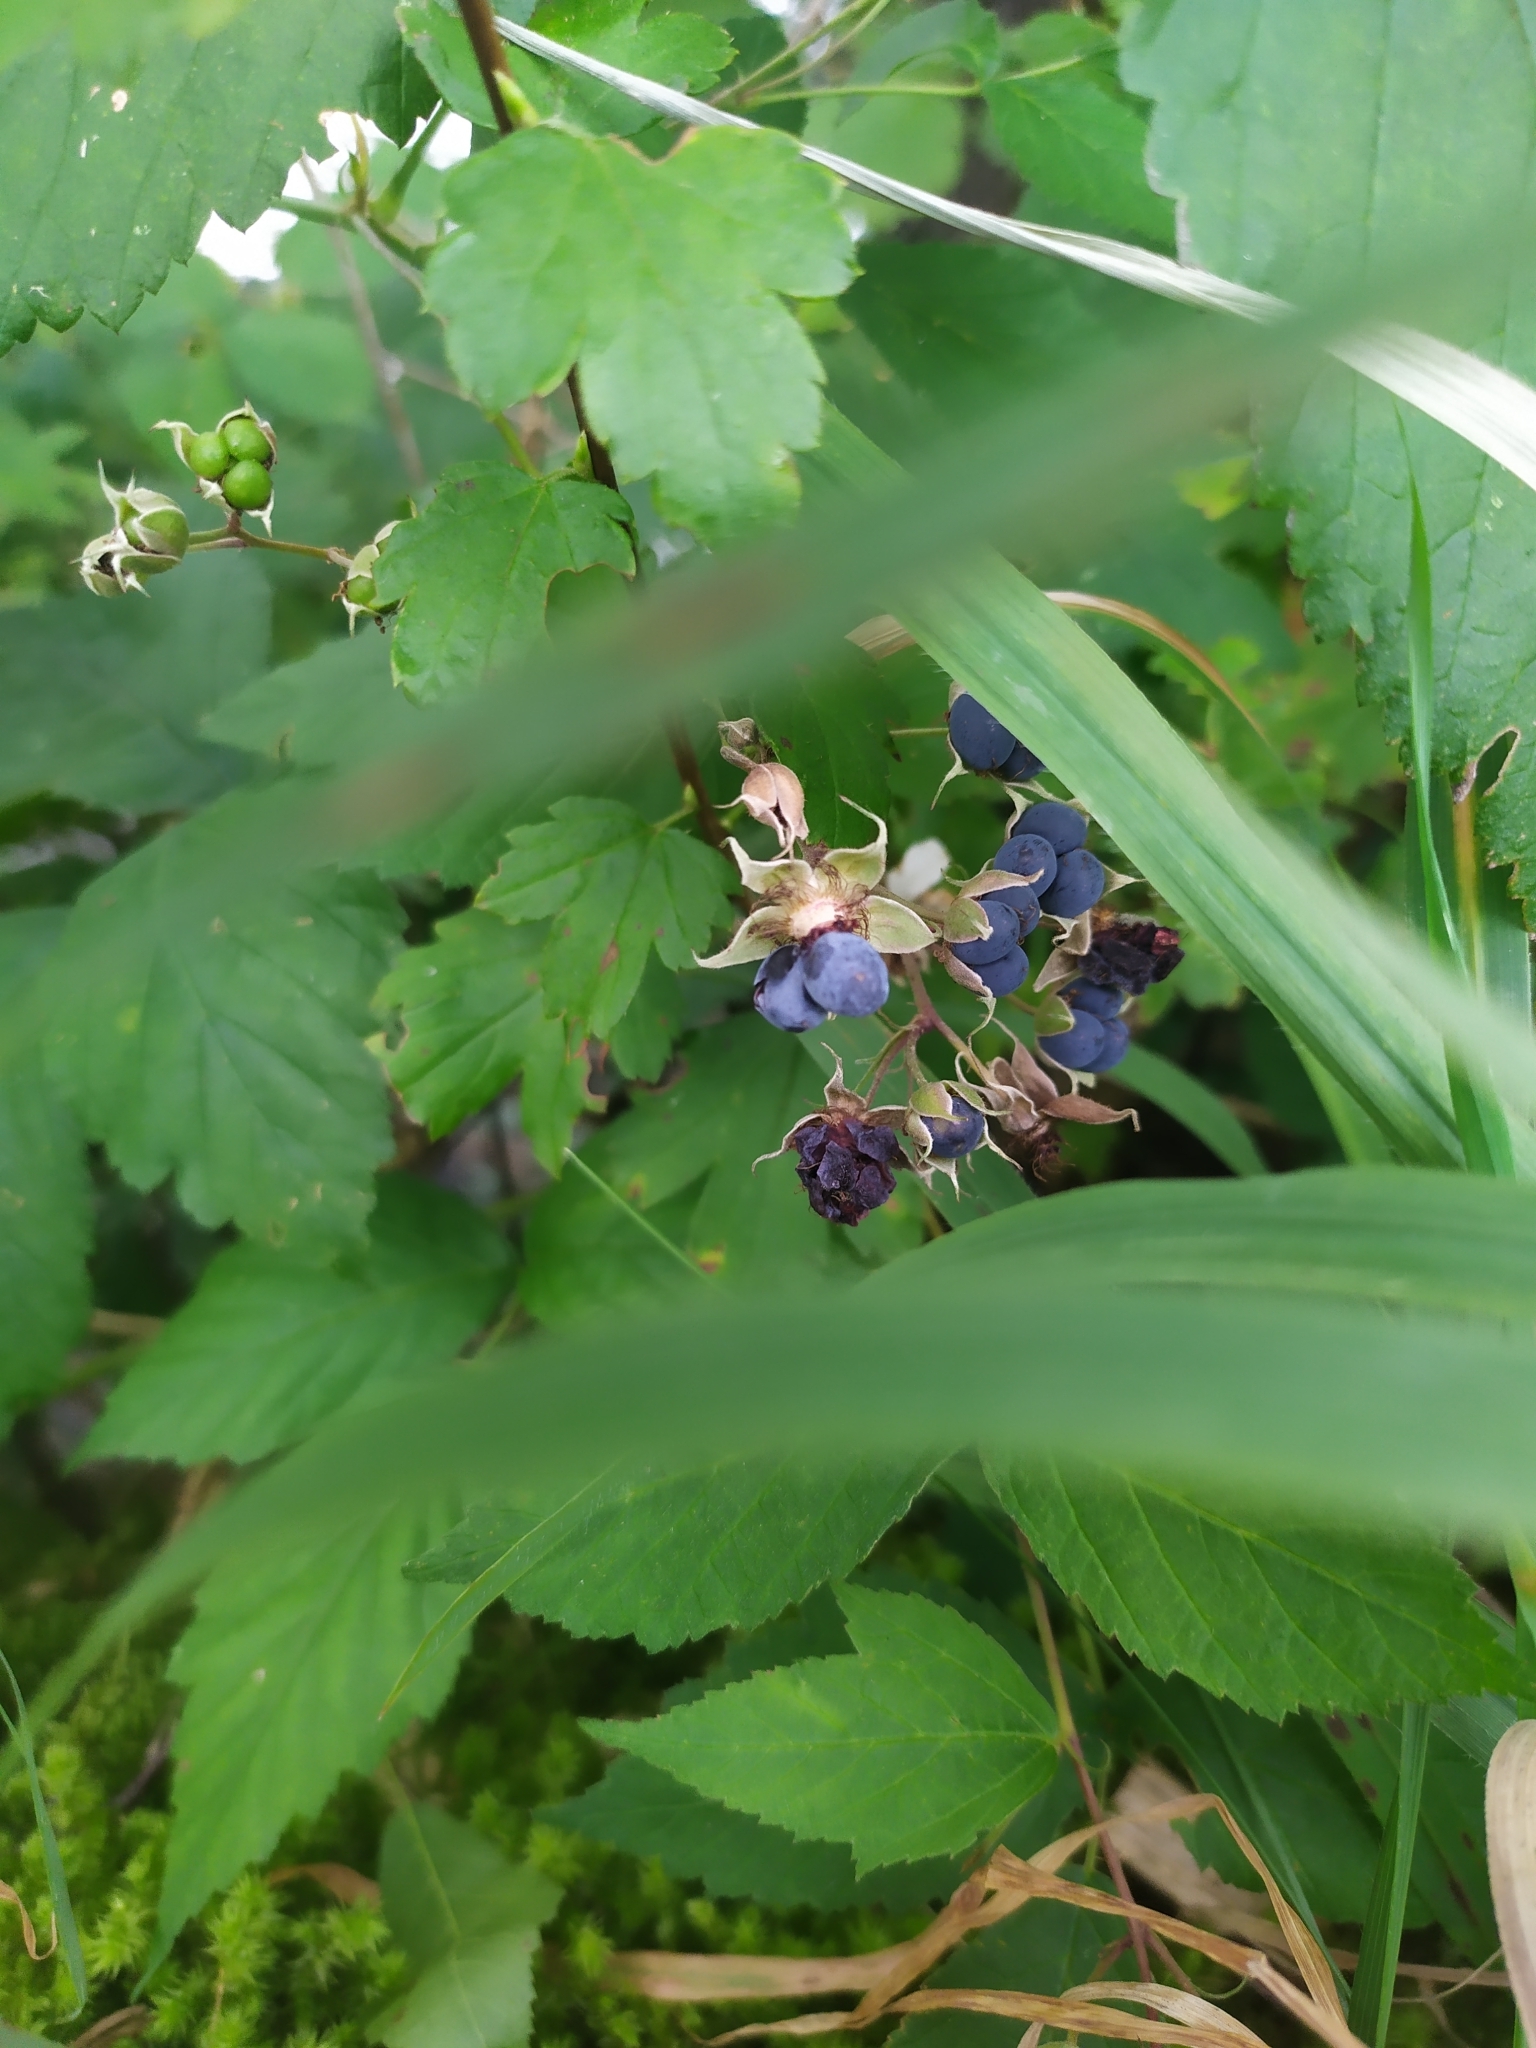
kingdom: Plantae
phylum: Tracheophyta
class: Magnoliopsida
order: Rosales
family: Rosaceae
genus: Rubus
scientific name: Rubus caesius
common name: Dewberry
